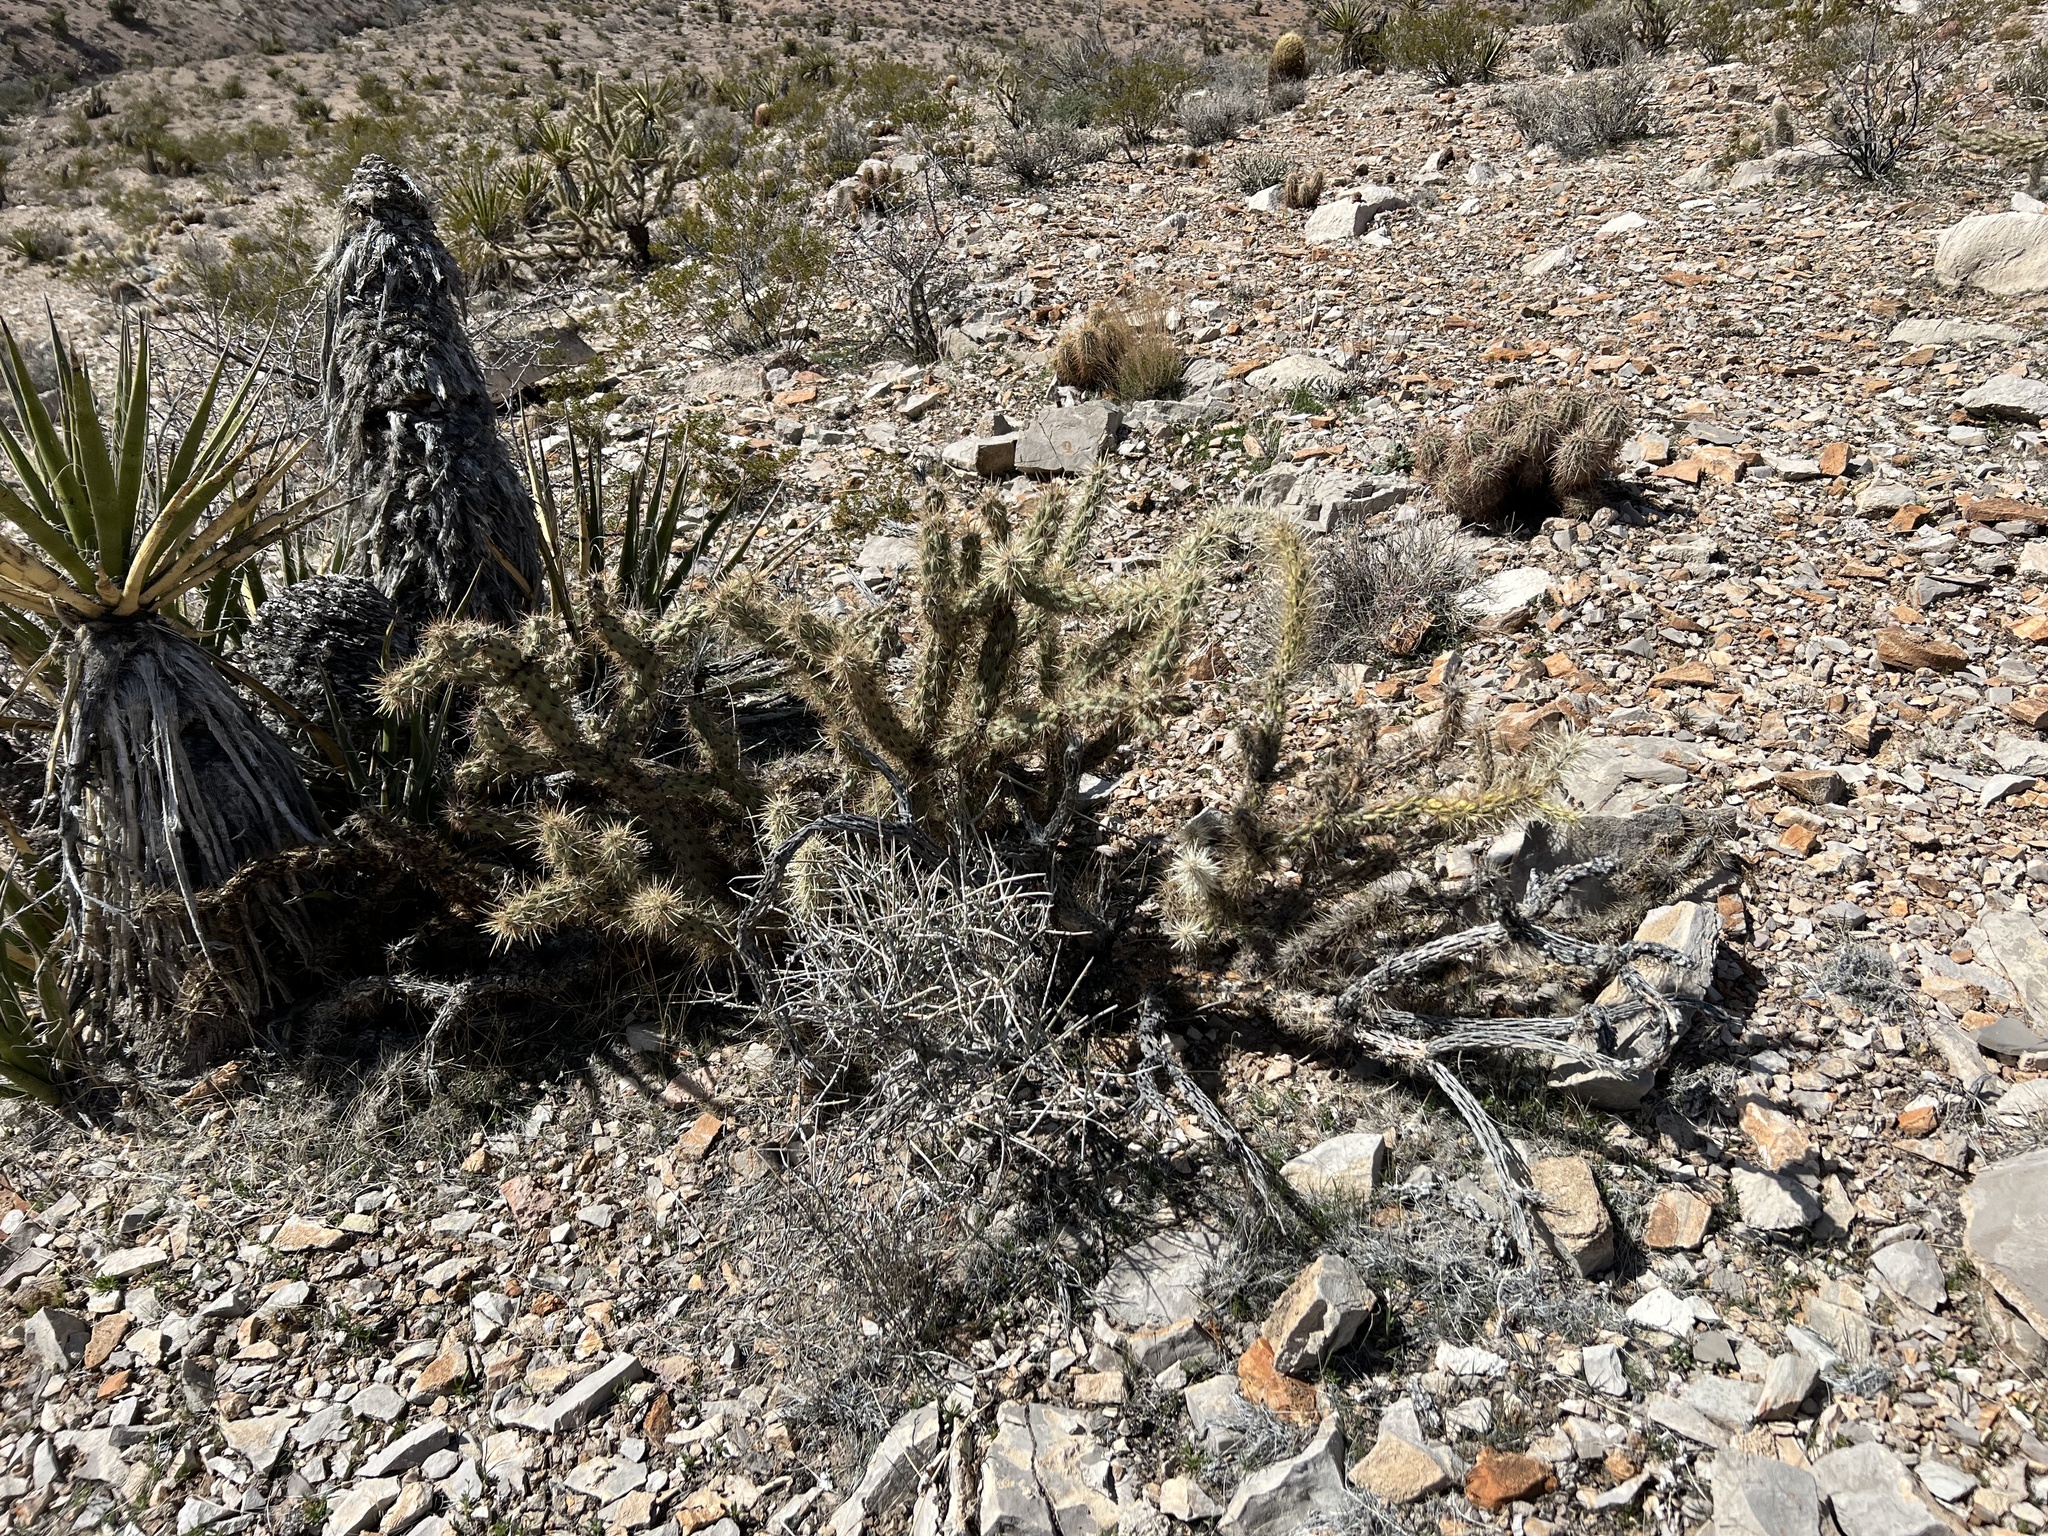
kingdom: Plantae
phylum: Tracheophyta
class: Magnoliopsida
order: Caryophyllales
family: Cactaceae
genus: Cylindropuntia
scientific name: Cylindropuntia acanthocarpa
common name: Buckhorn cholla
